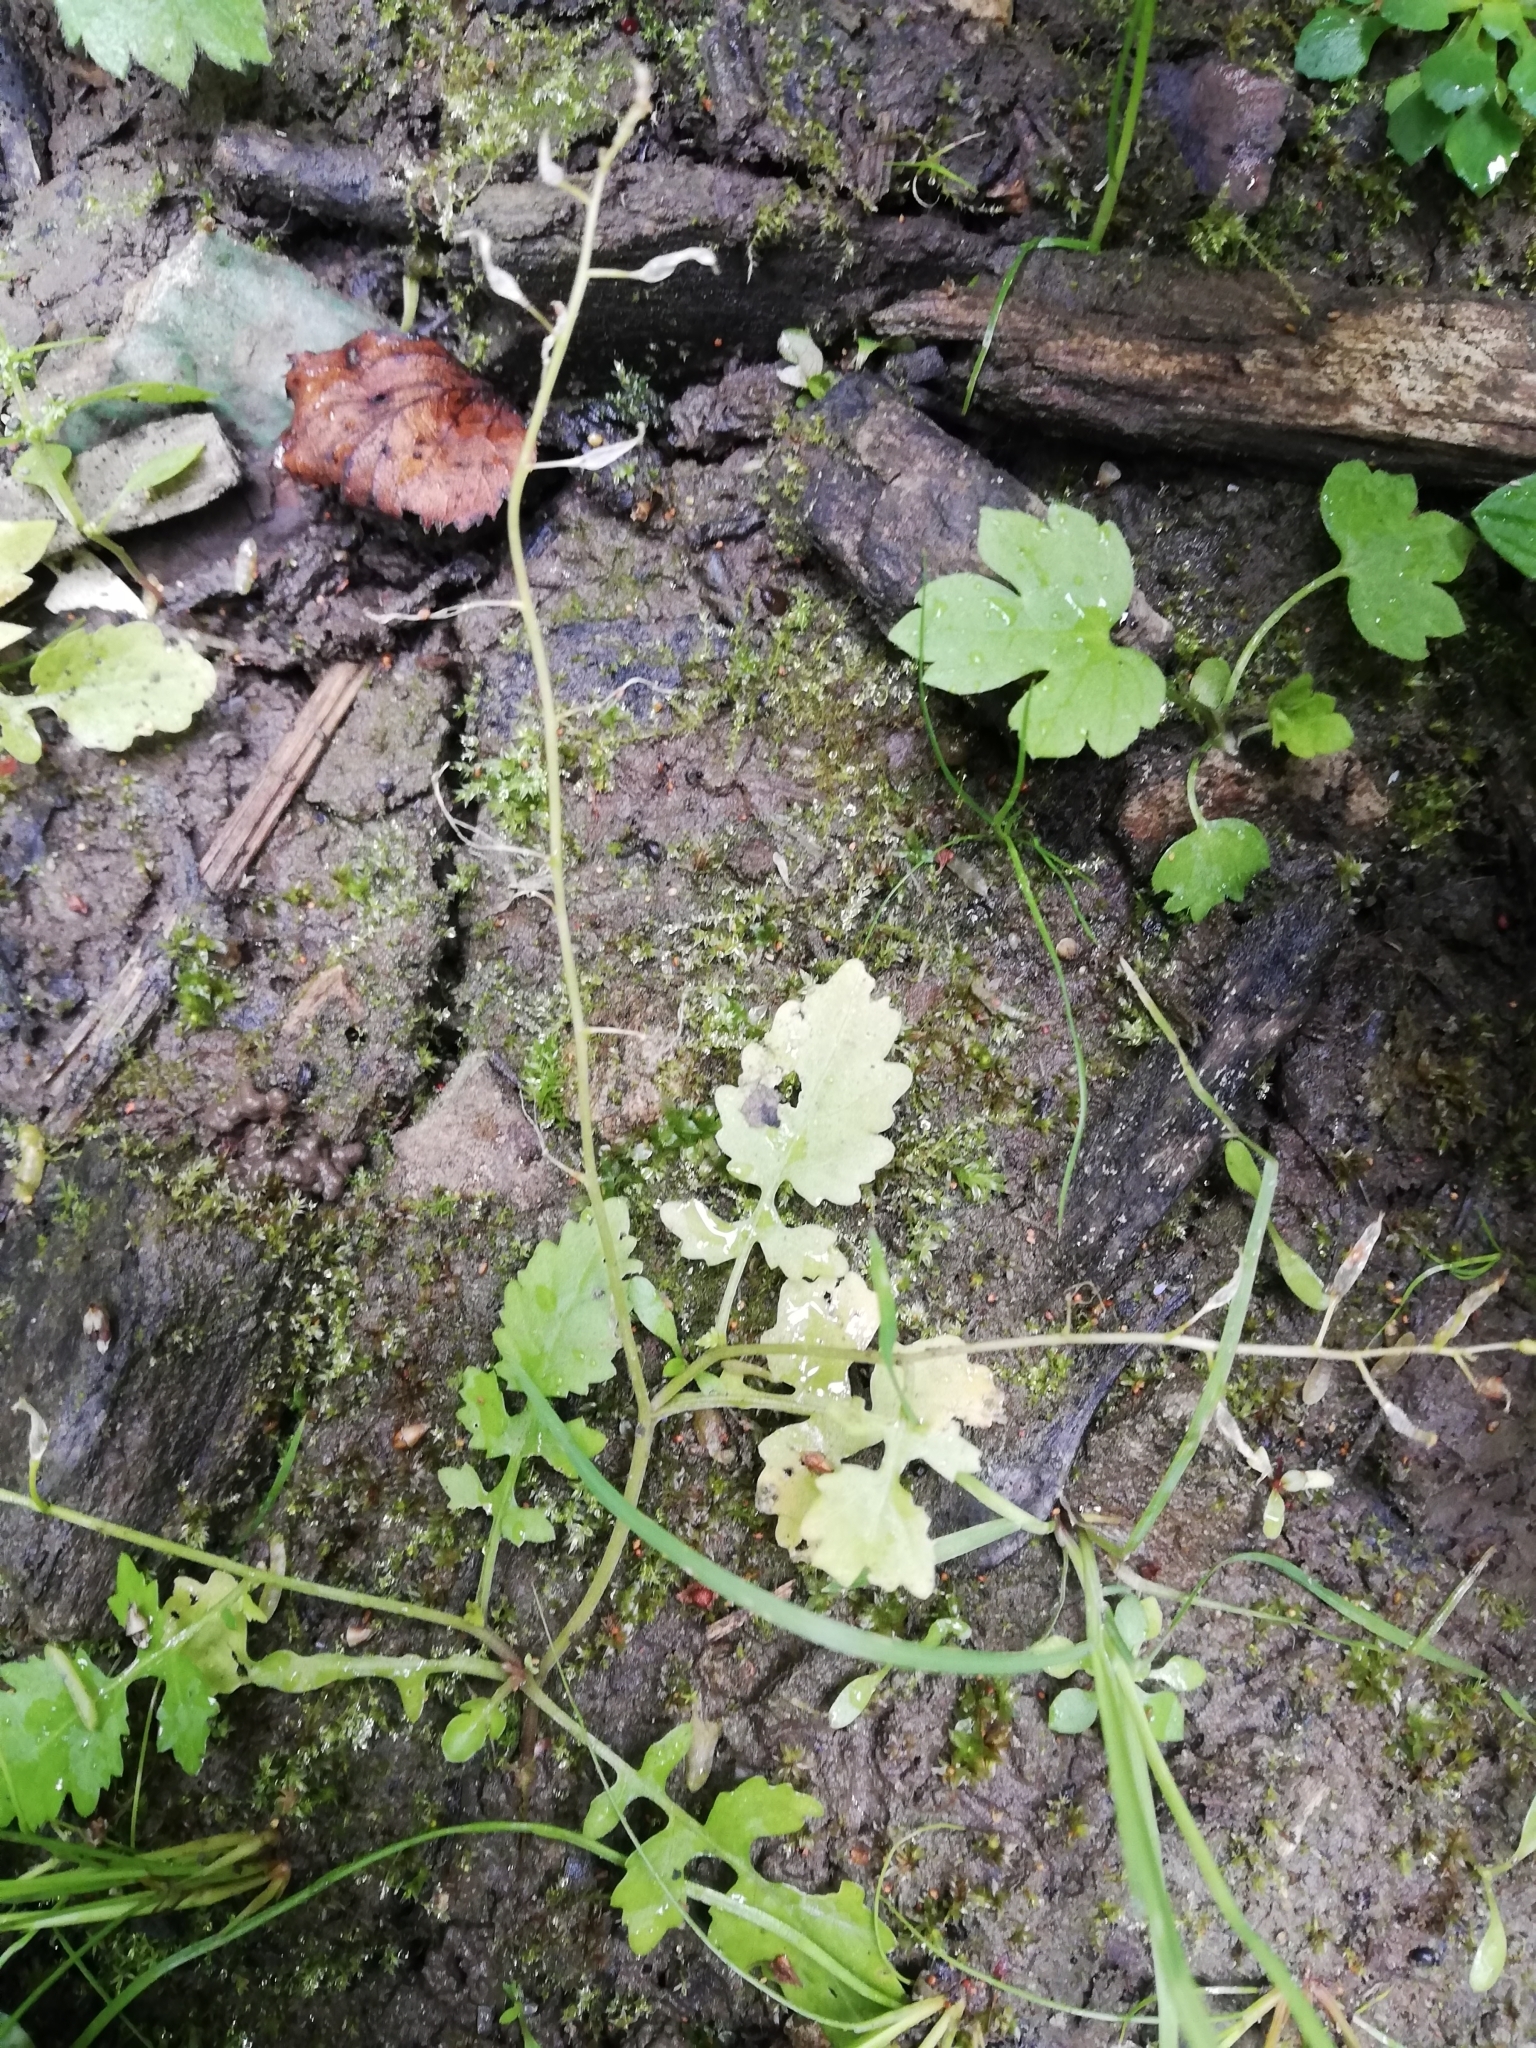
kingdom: Plantae
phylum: Tracheophyta
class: Magnoliopsida
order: Brassicales
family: Brassicaceae
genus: Rorippa
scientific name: Rorippa palustris
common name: Marsh yellow-cress
